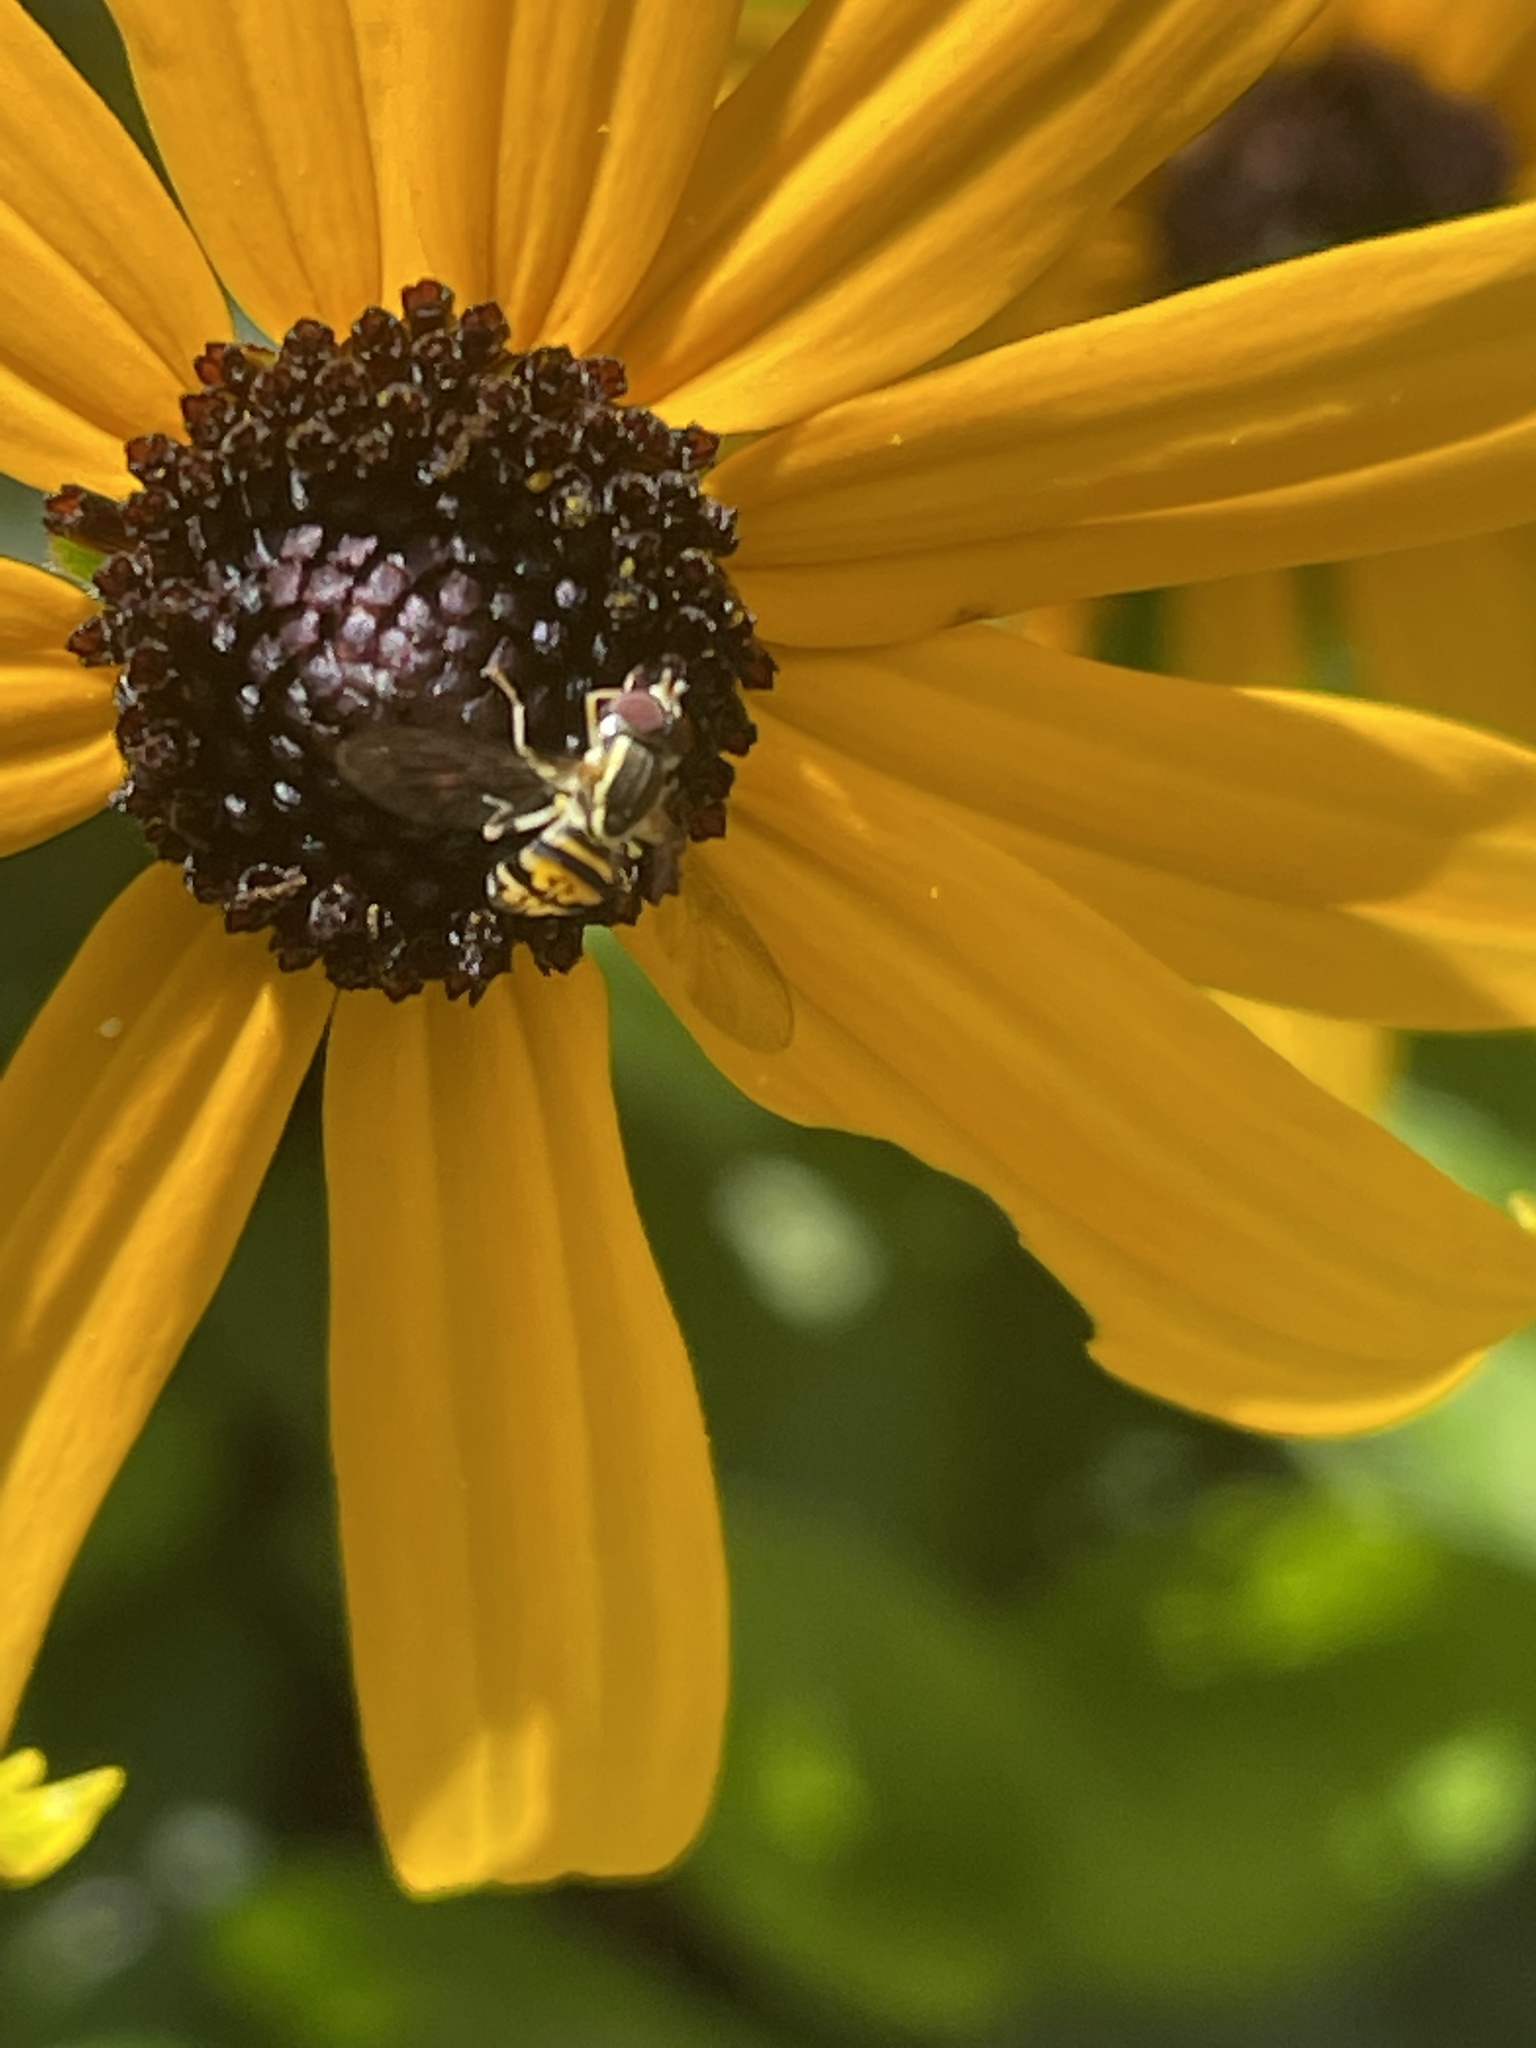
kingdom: Animalia
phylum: Arthropoda
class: Insecta
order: Diptera
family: Syrphidae
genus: Toxomerus
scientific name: Toxomerus geminatus
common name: Eastern calligrapher
